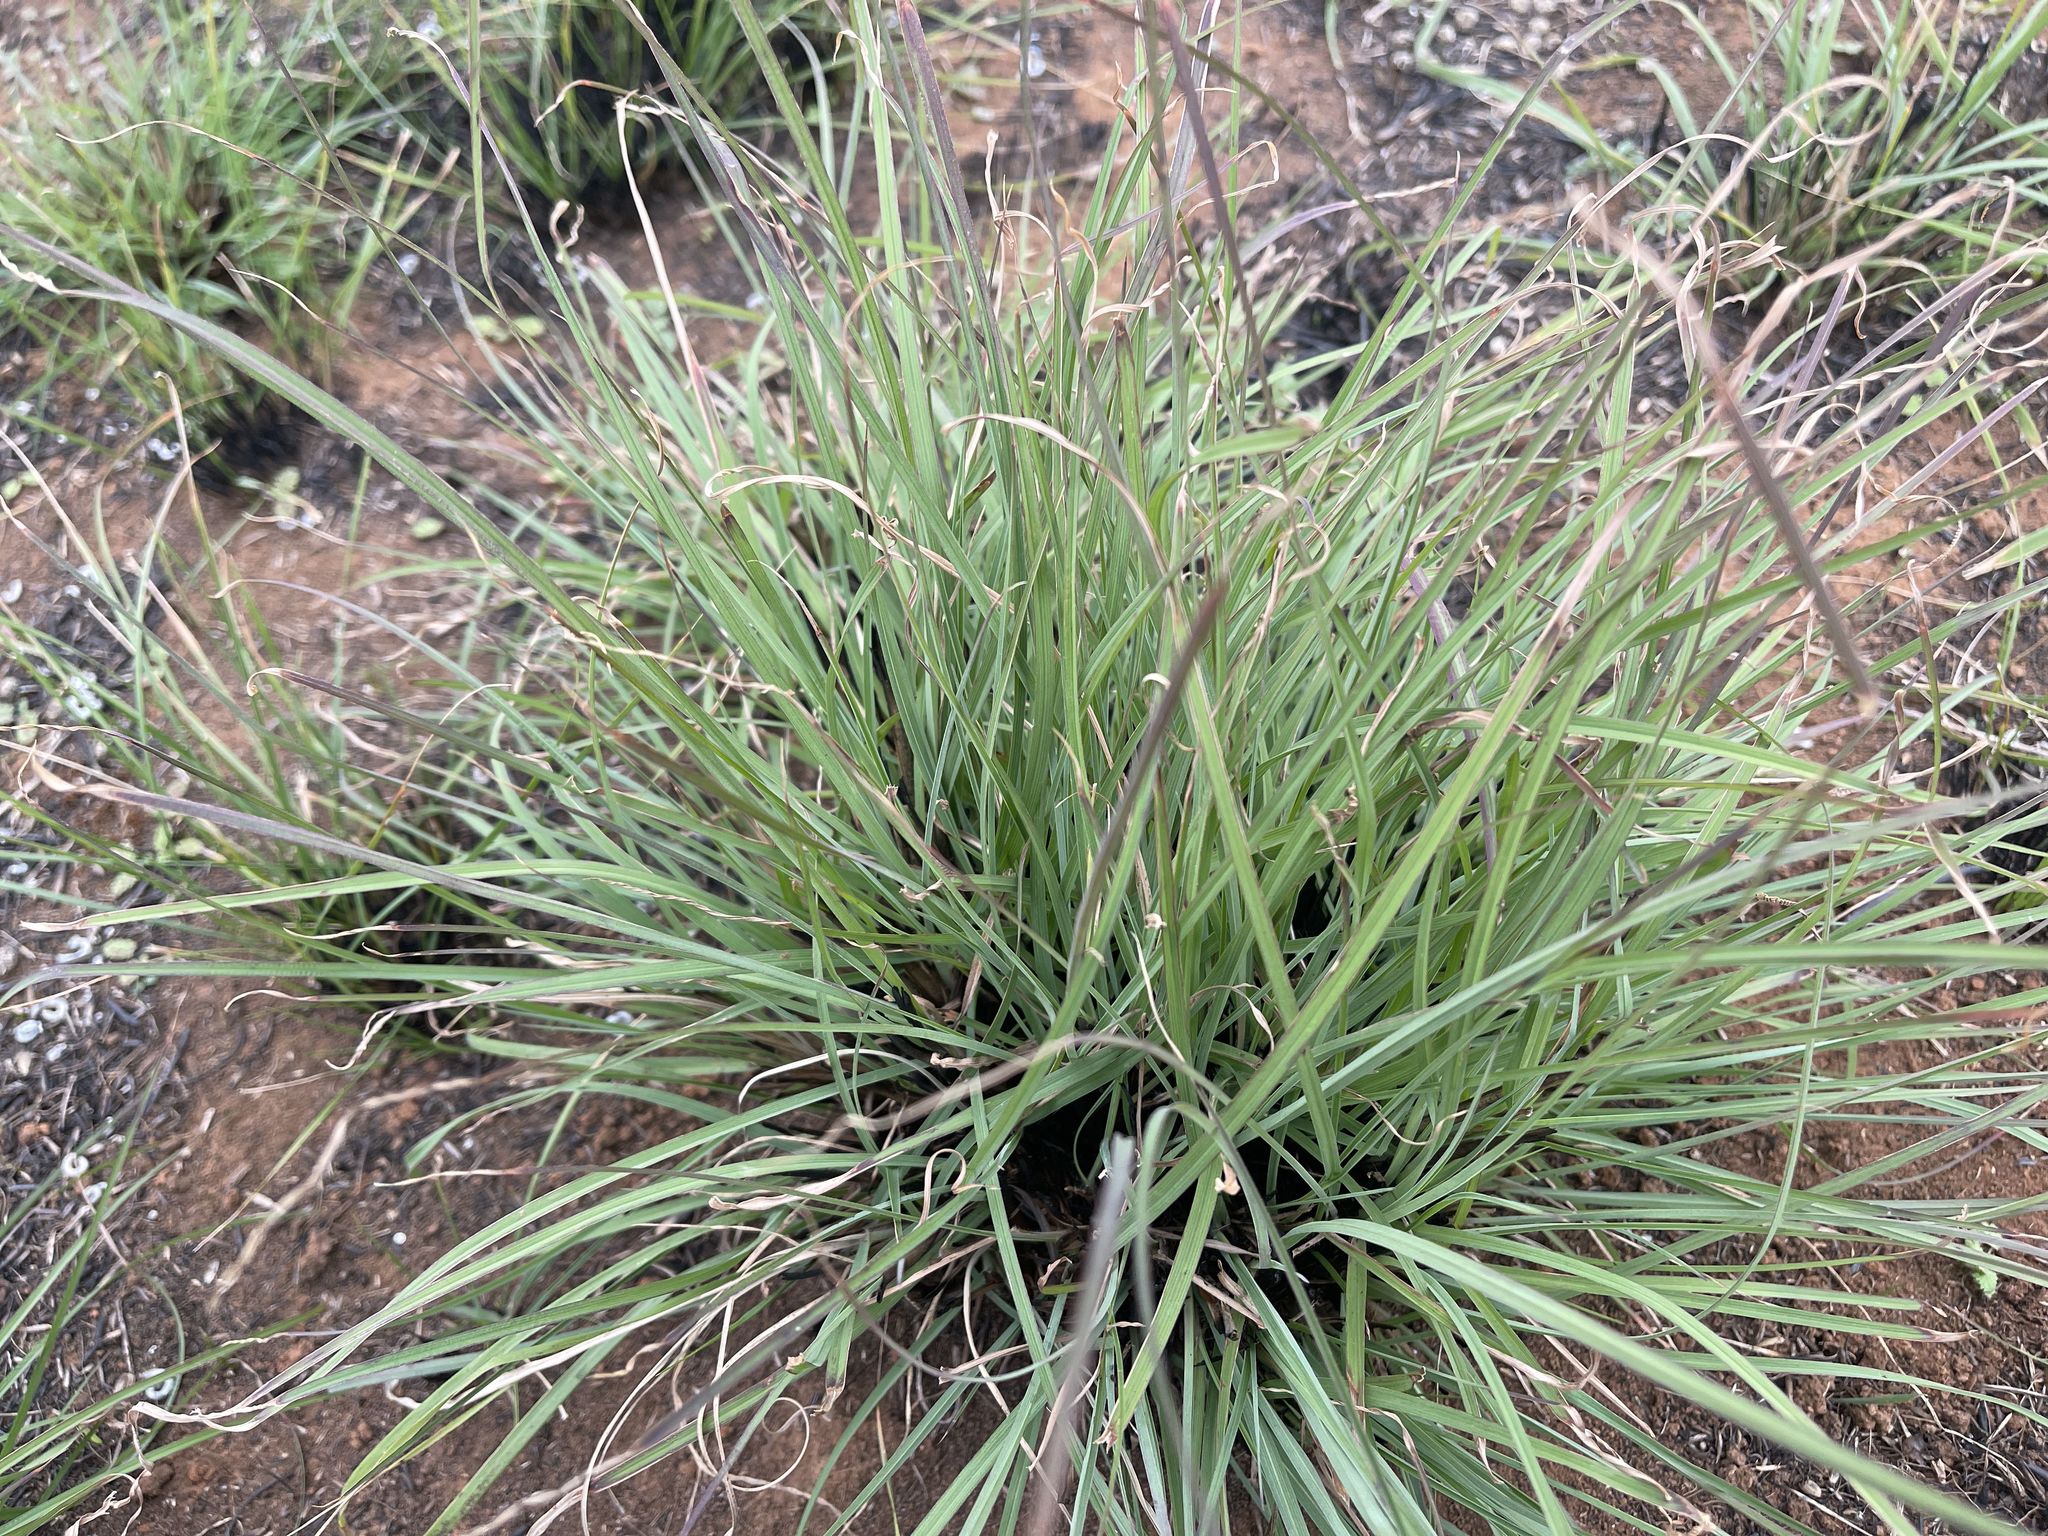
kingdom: Plantae
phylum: Tracheophyta
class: Liliopsida
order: Poales
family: Poaceae
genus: Themeda
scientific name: Themeda triandra
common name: Kangaroo grass
